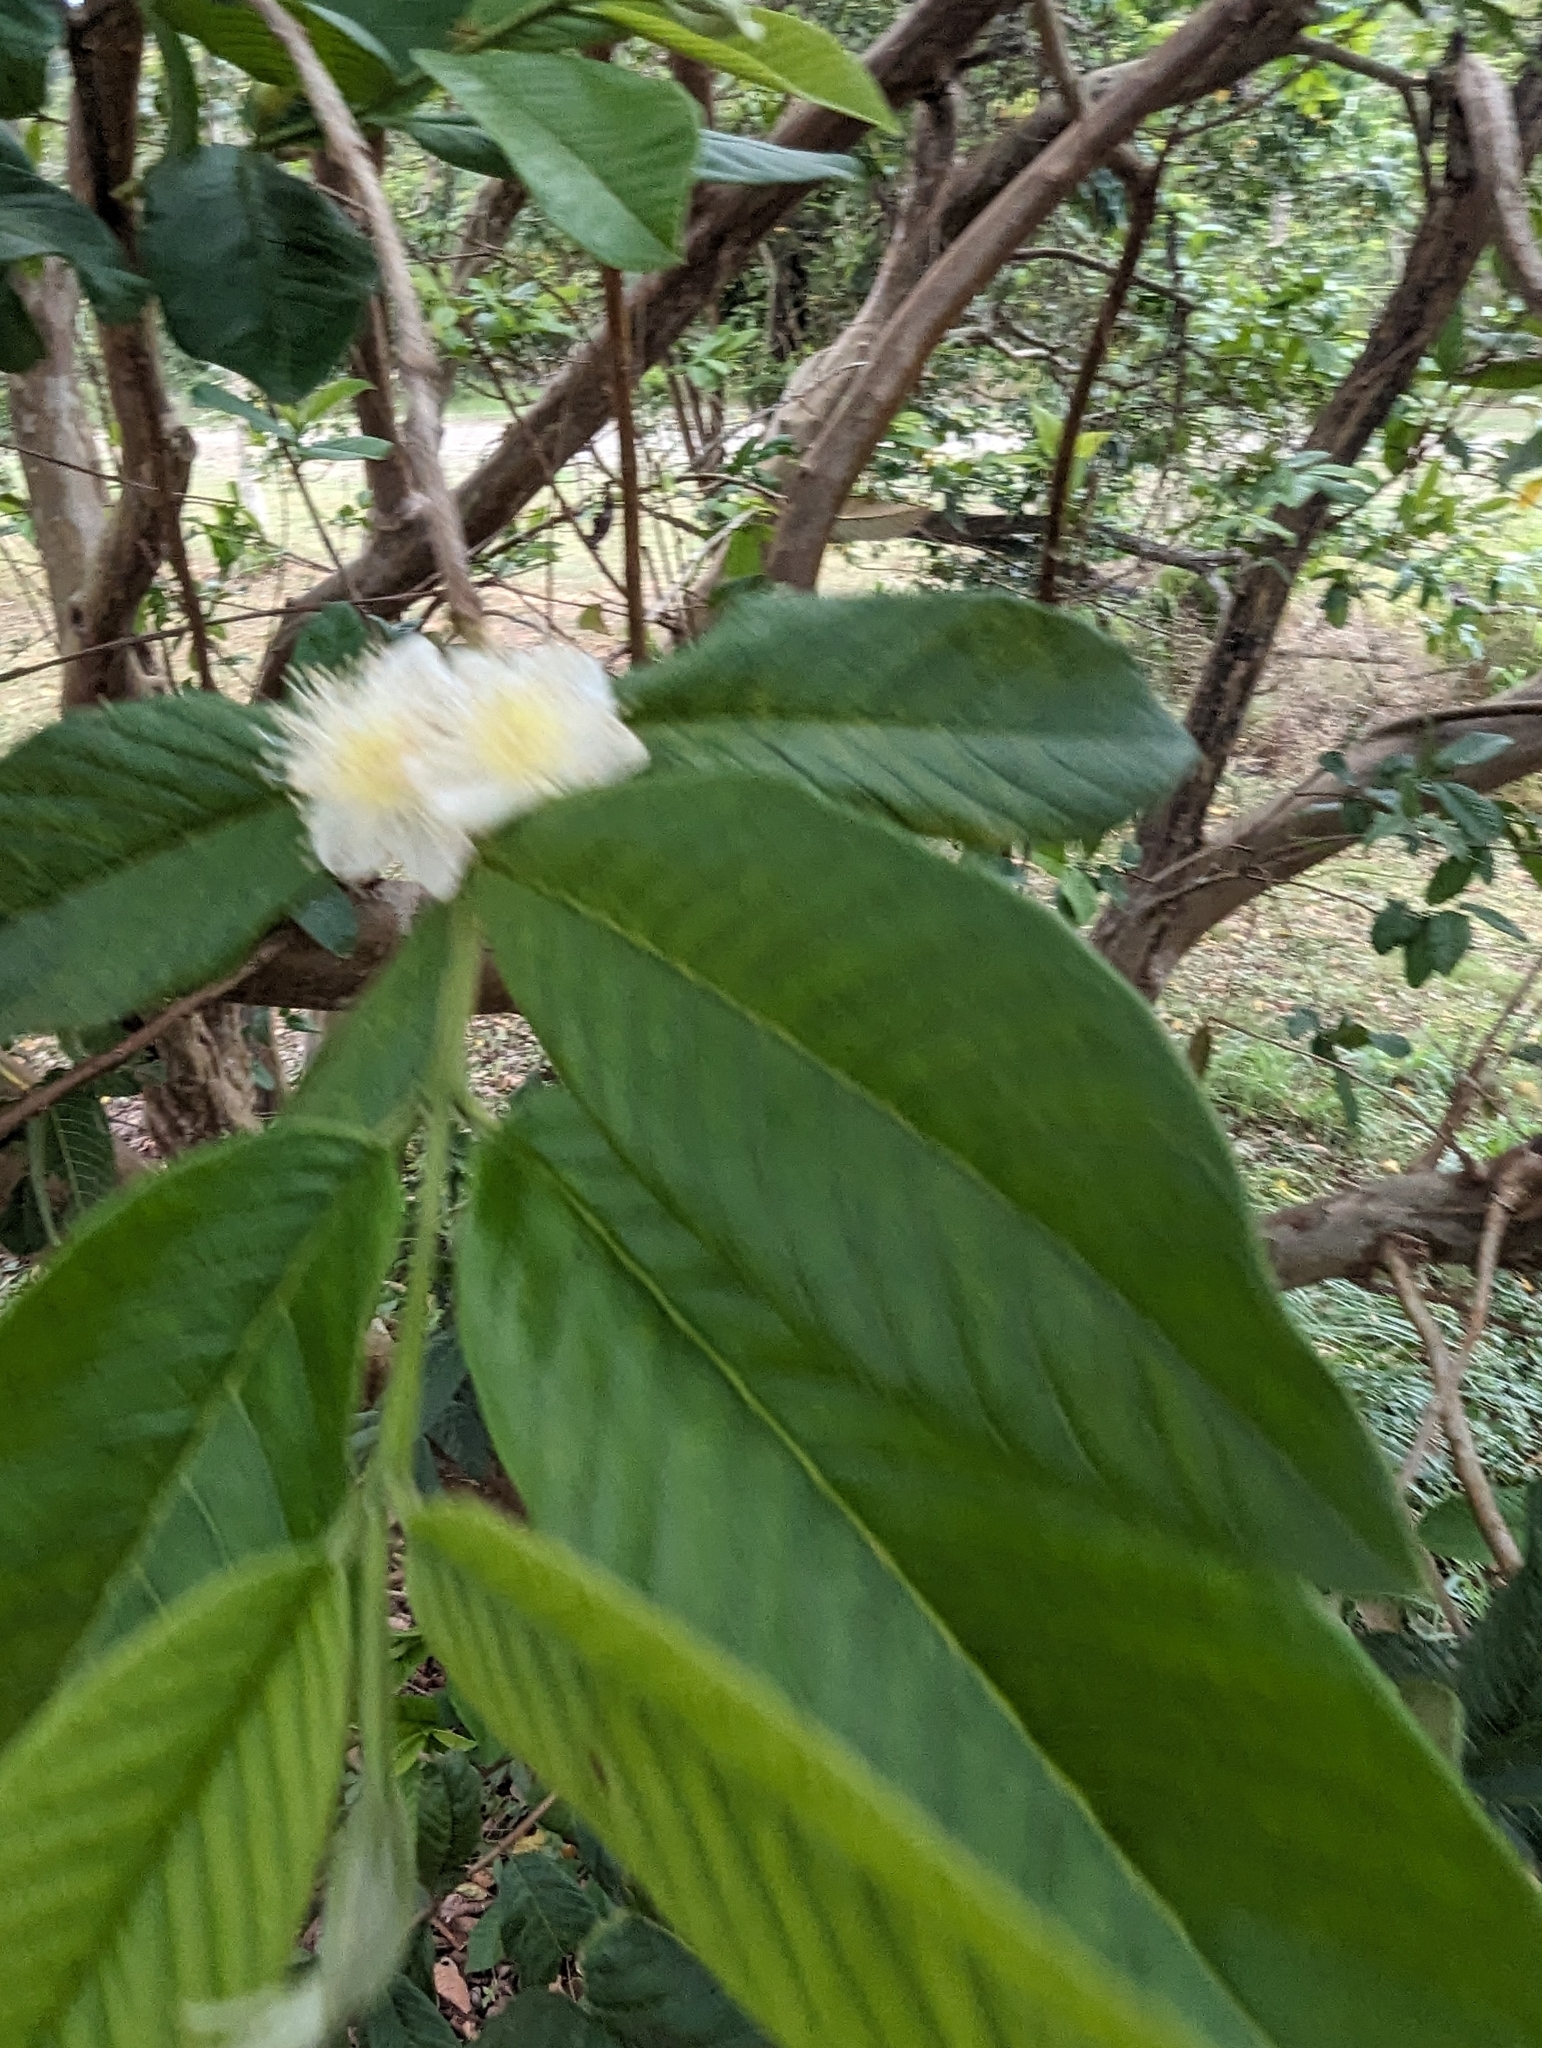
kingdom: Plantae
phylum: Tracheophyta
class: Magnoliopsida
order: Myrtales
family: Myrtaceae
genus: Psidium
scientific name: Psidium guajava
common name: Guava
